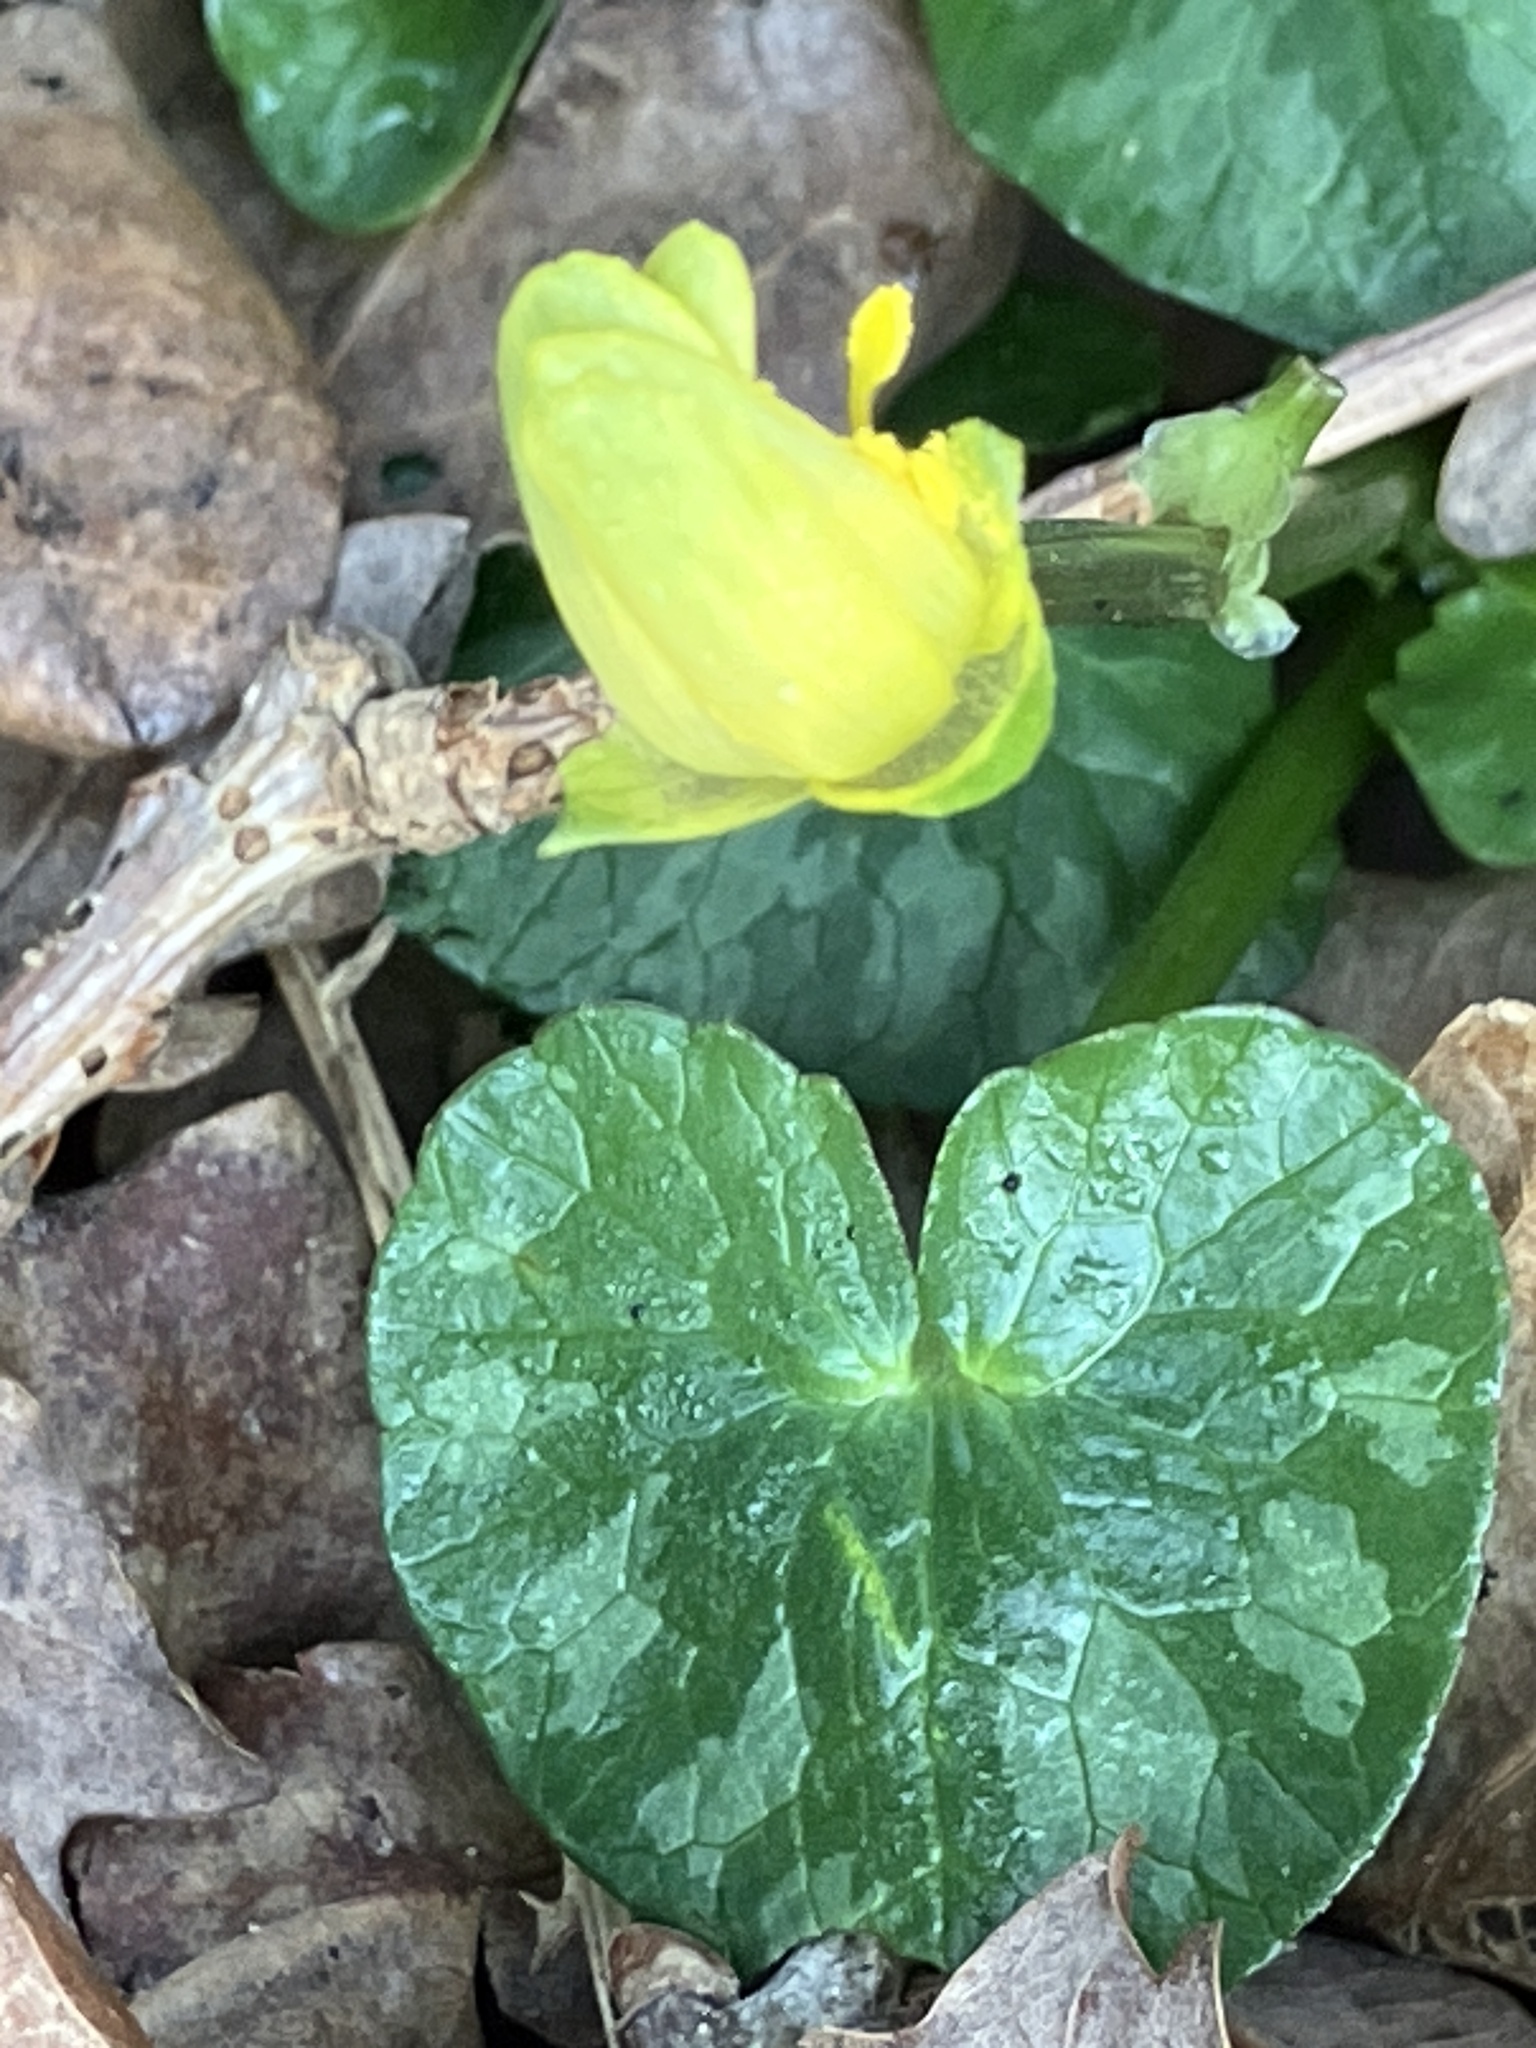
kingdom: Plantae
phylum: Tracheophyta
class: Magnoliopsida
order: Ranunculales
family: Ranunculaceae
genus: Ficaria
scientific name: Ficaria verna
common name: Lesser celandine
